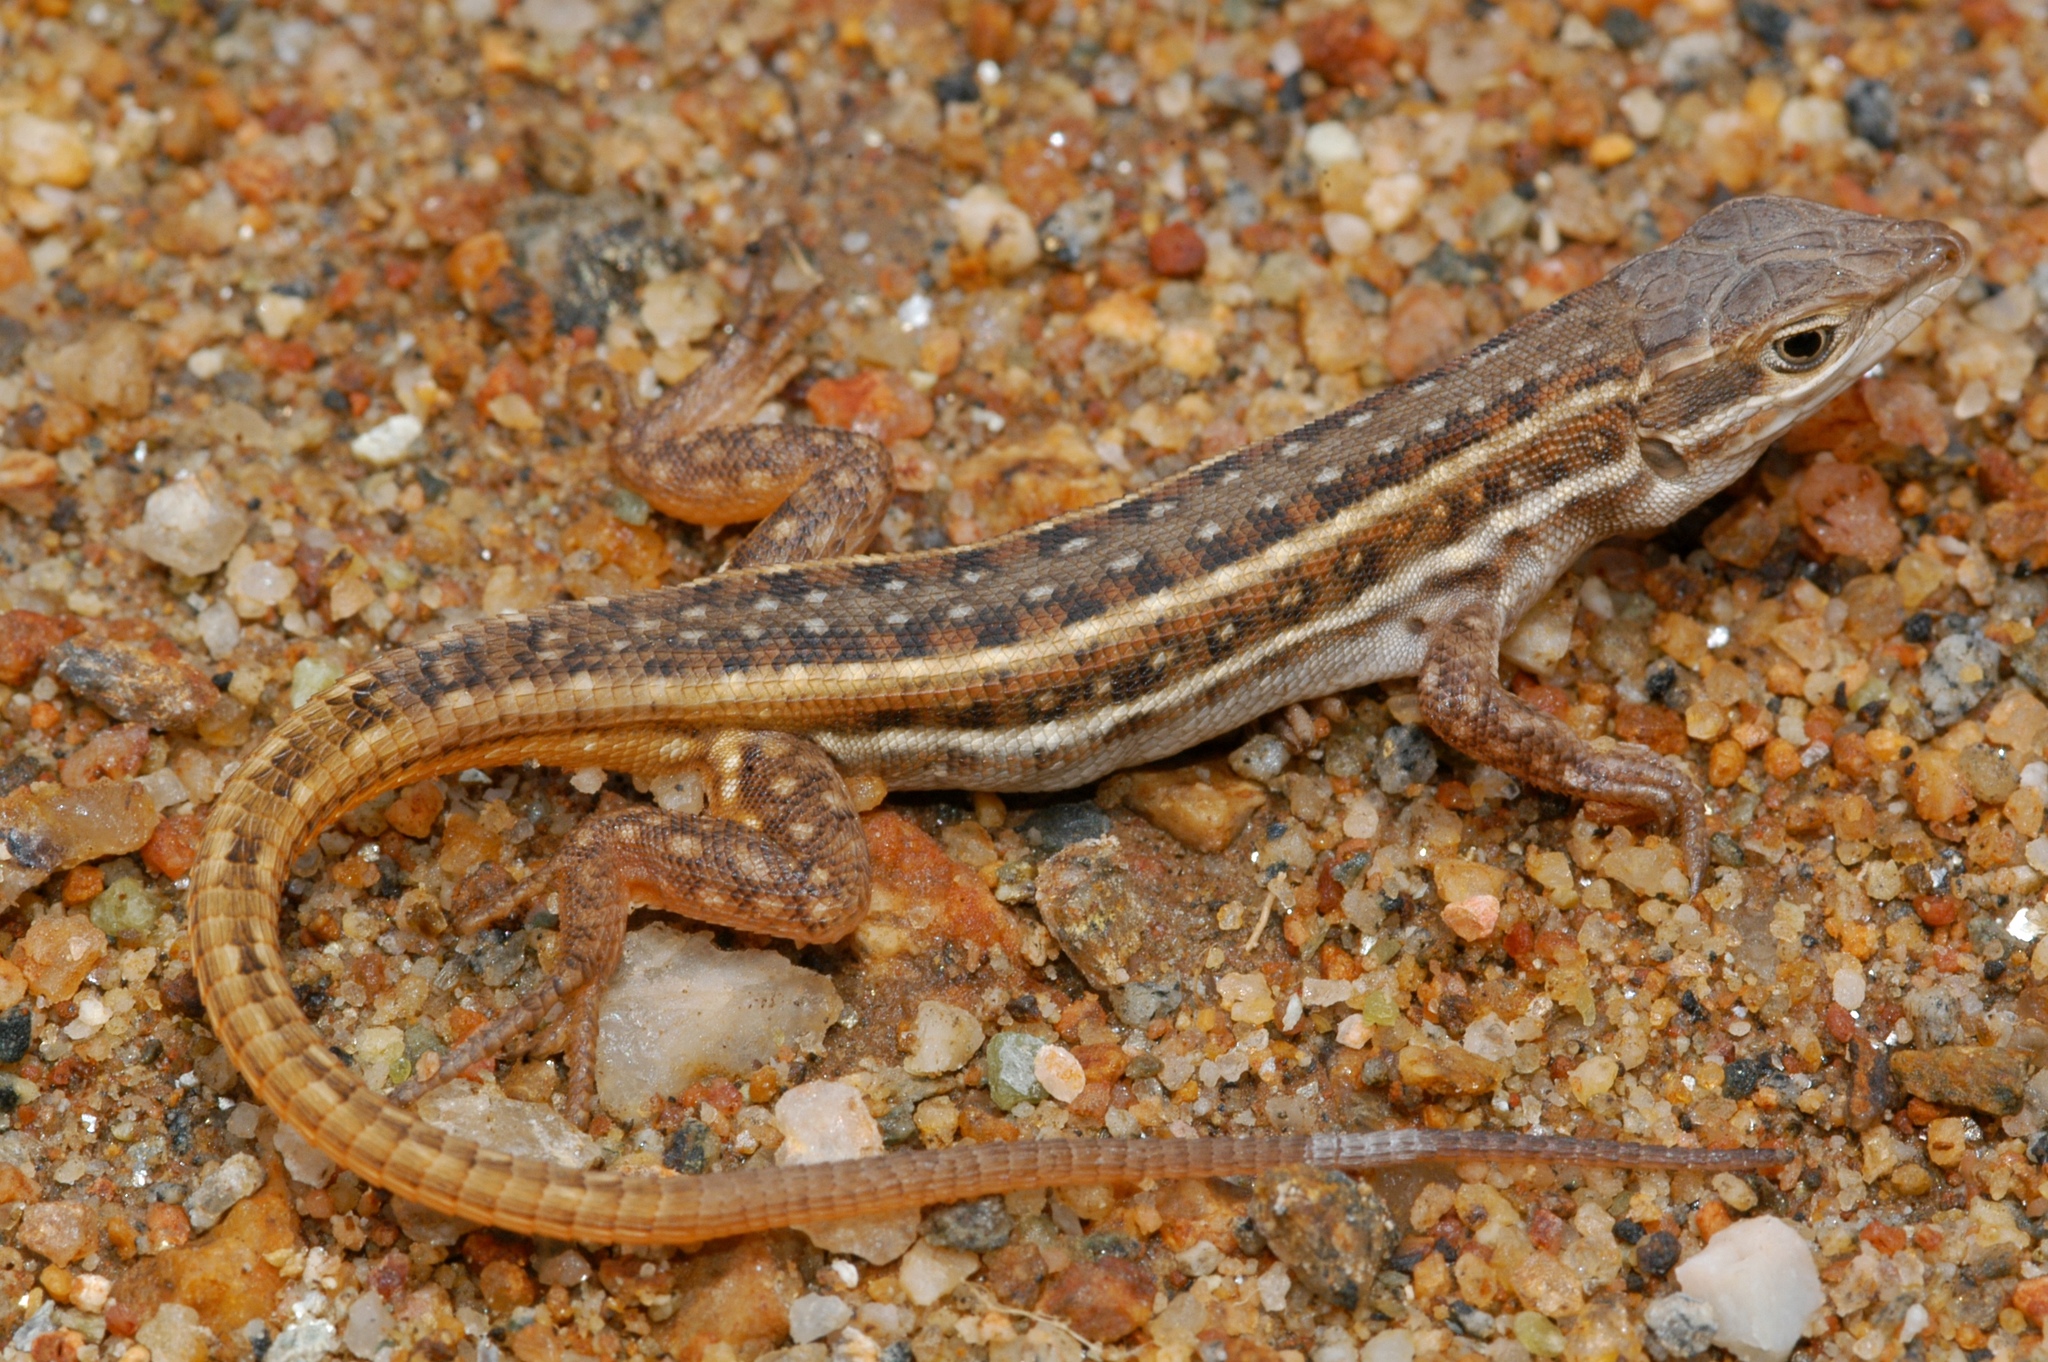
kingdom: Animalia
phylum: Chordata
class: Squamata
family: Lacertidae
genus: Meroles
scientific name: Meroles squamulosus
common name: Common desert lizard
